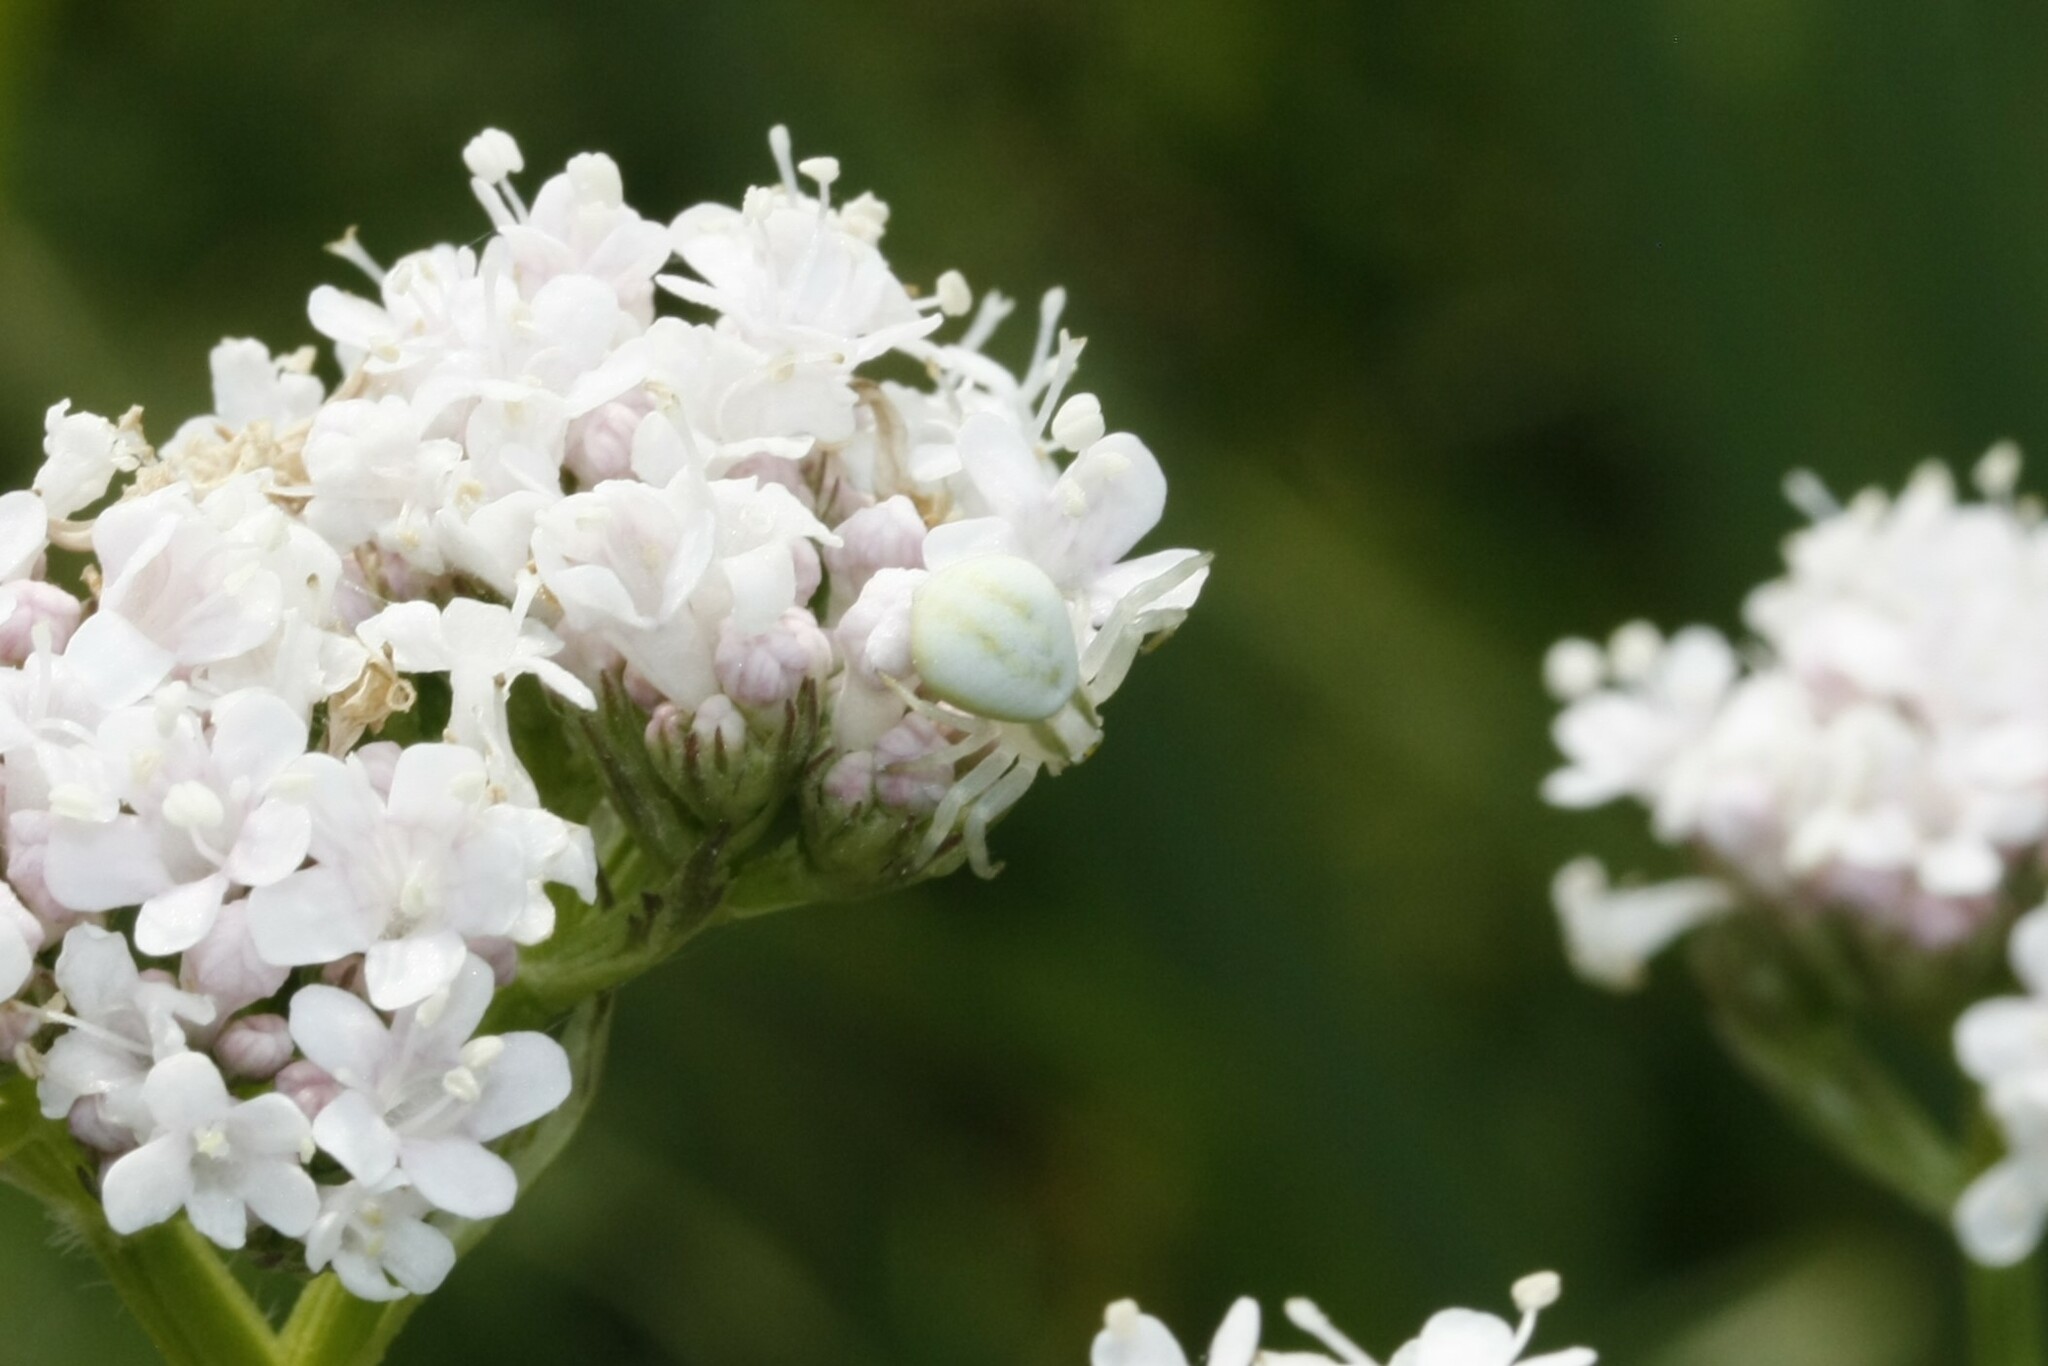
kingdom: Animalia
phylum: Arthropoda
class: Arachnida
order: Araneae
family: Thomisidae
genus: Misumena
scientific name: Misumena vatia
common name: Goldenrod crab spider
